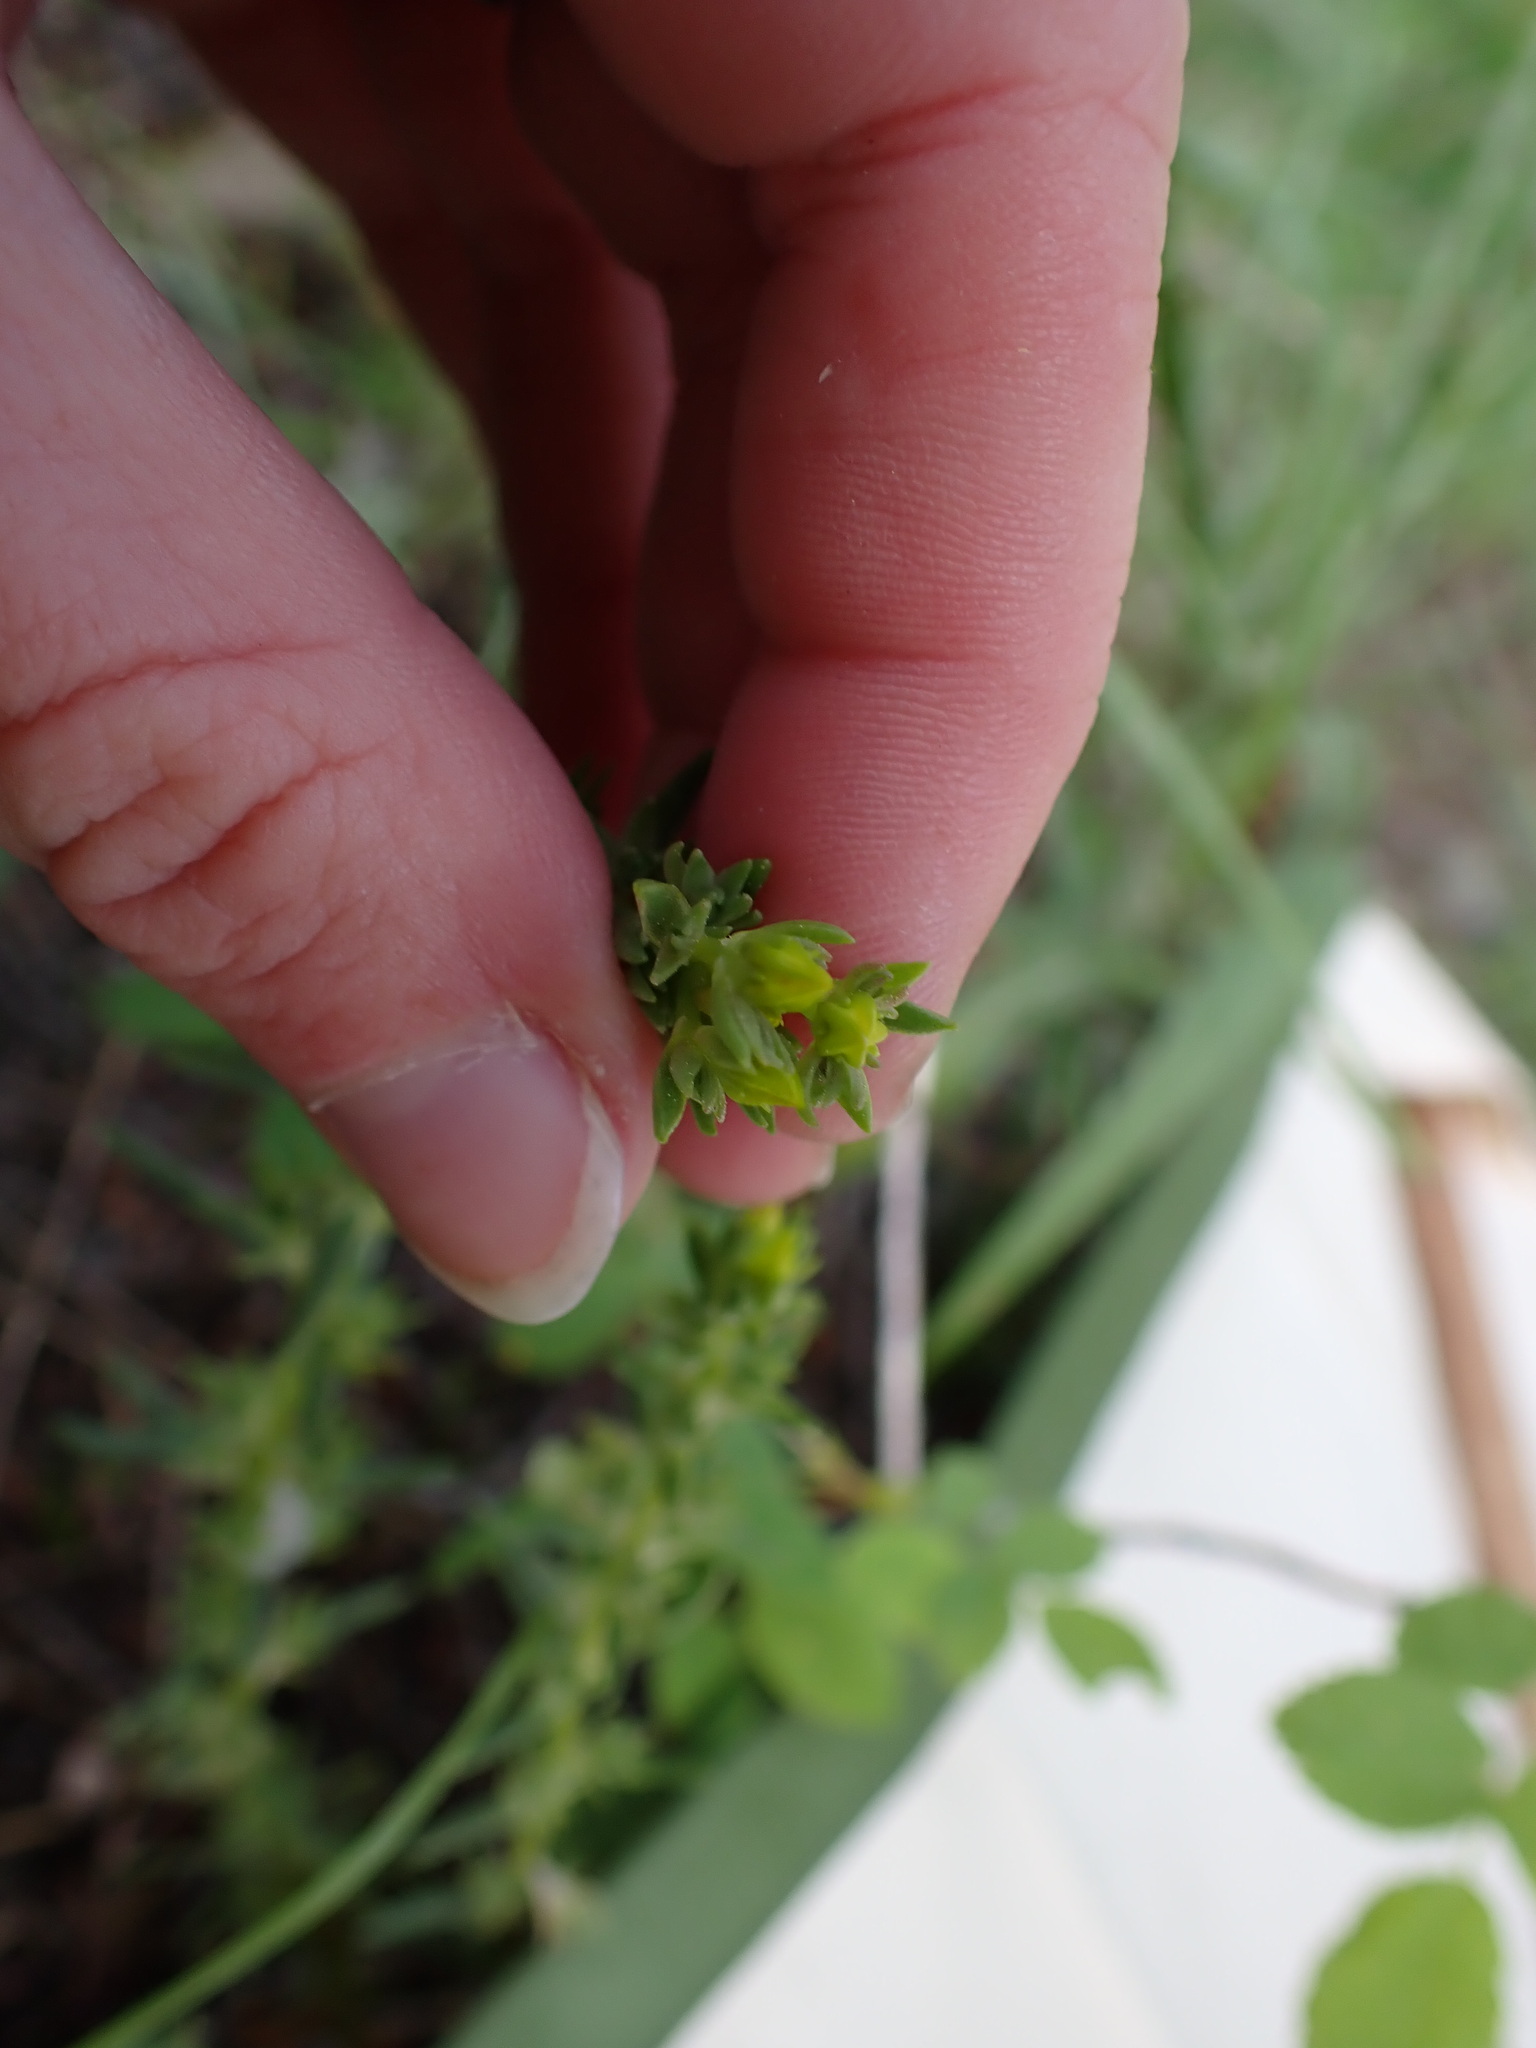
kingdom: Plantae
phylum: Tracheophyta
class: Magnoliopsida
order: Saxifragales
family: Crassulaceae
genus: Sedum
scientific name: Sedum stenopetalum
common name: Narrow-petaled stonecrop
